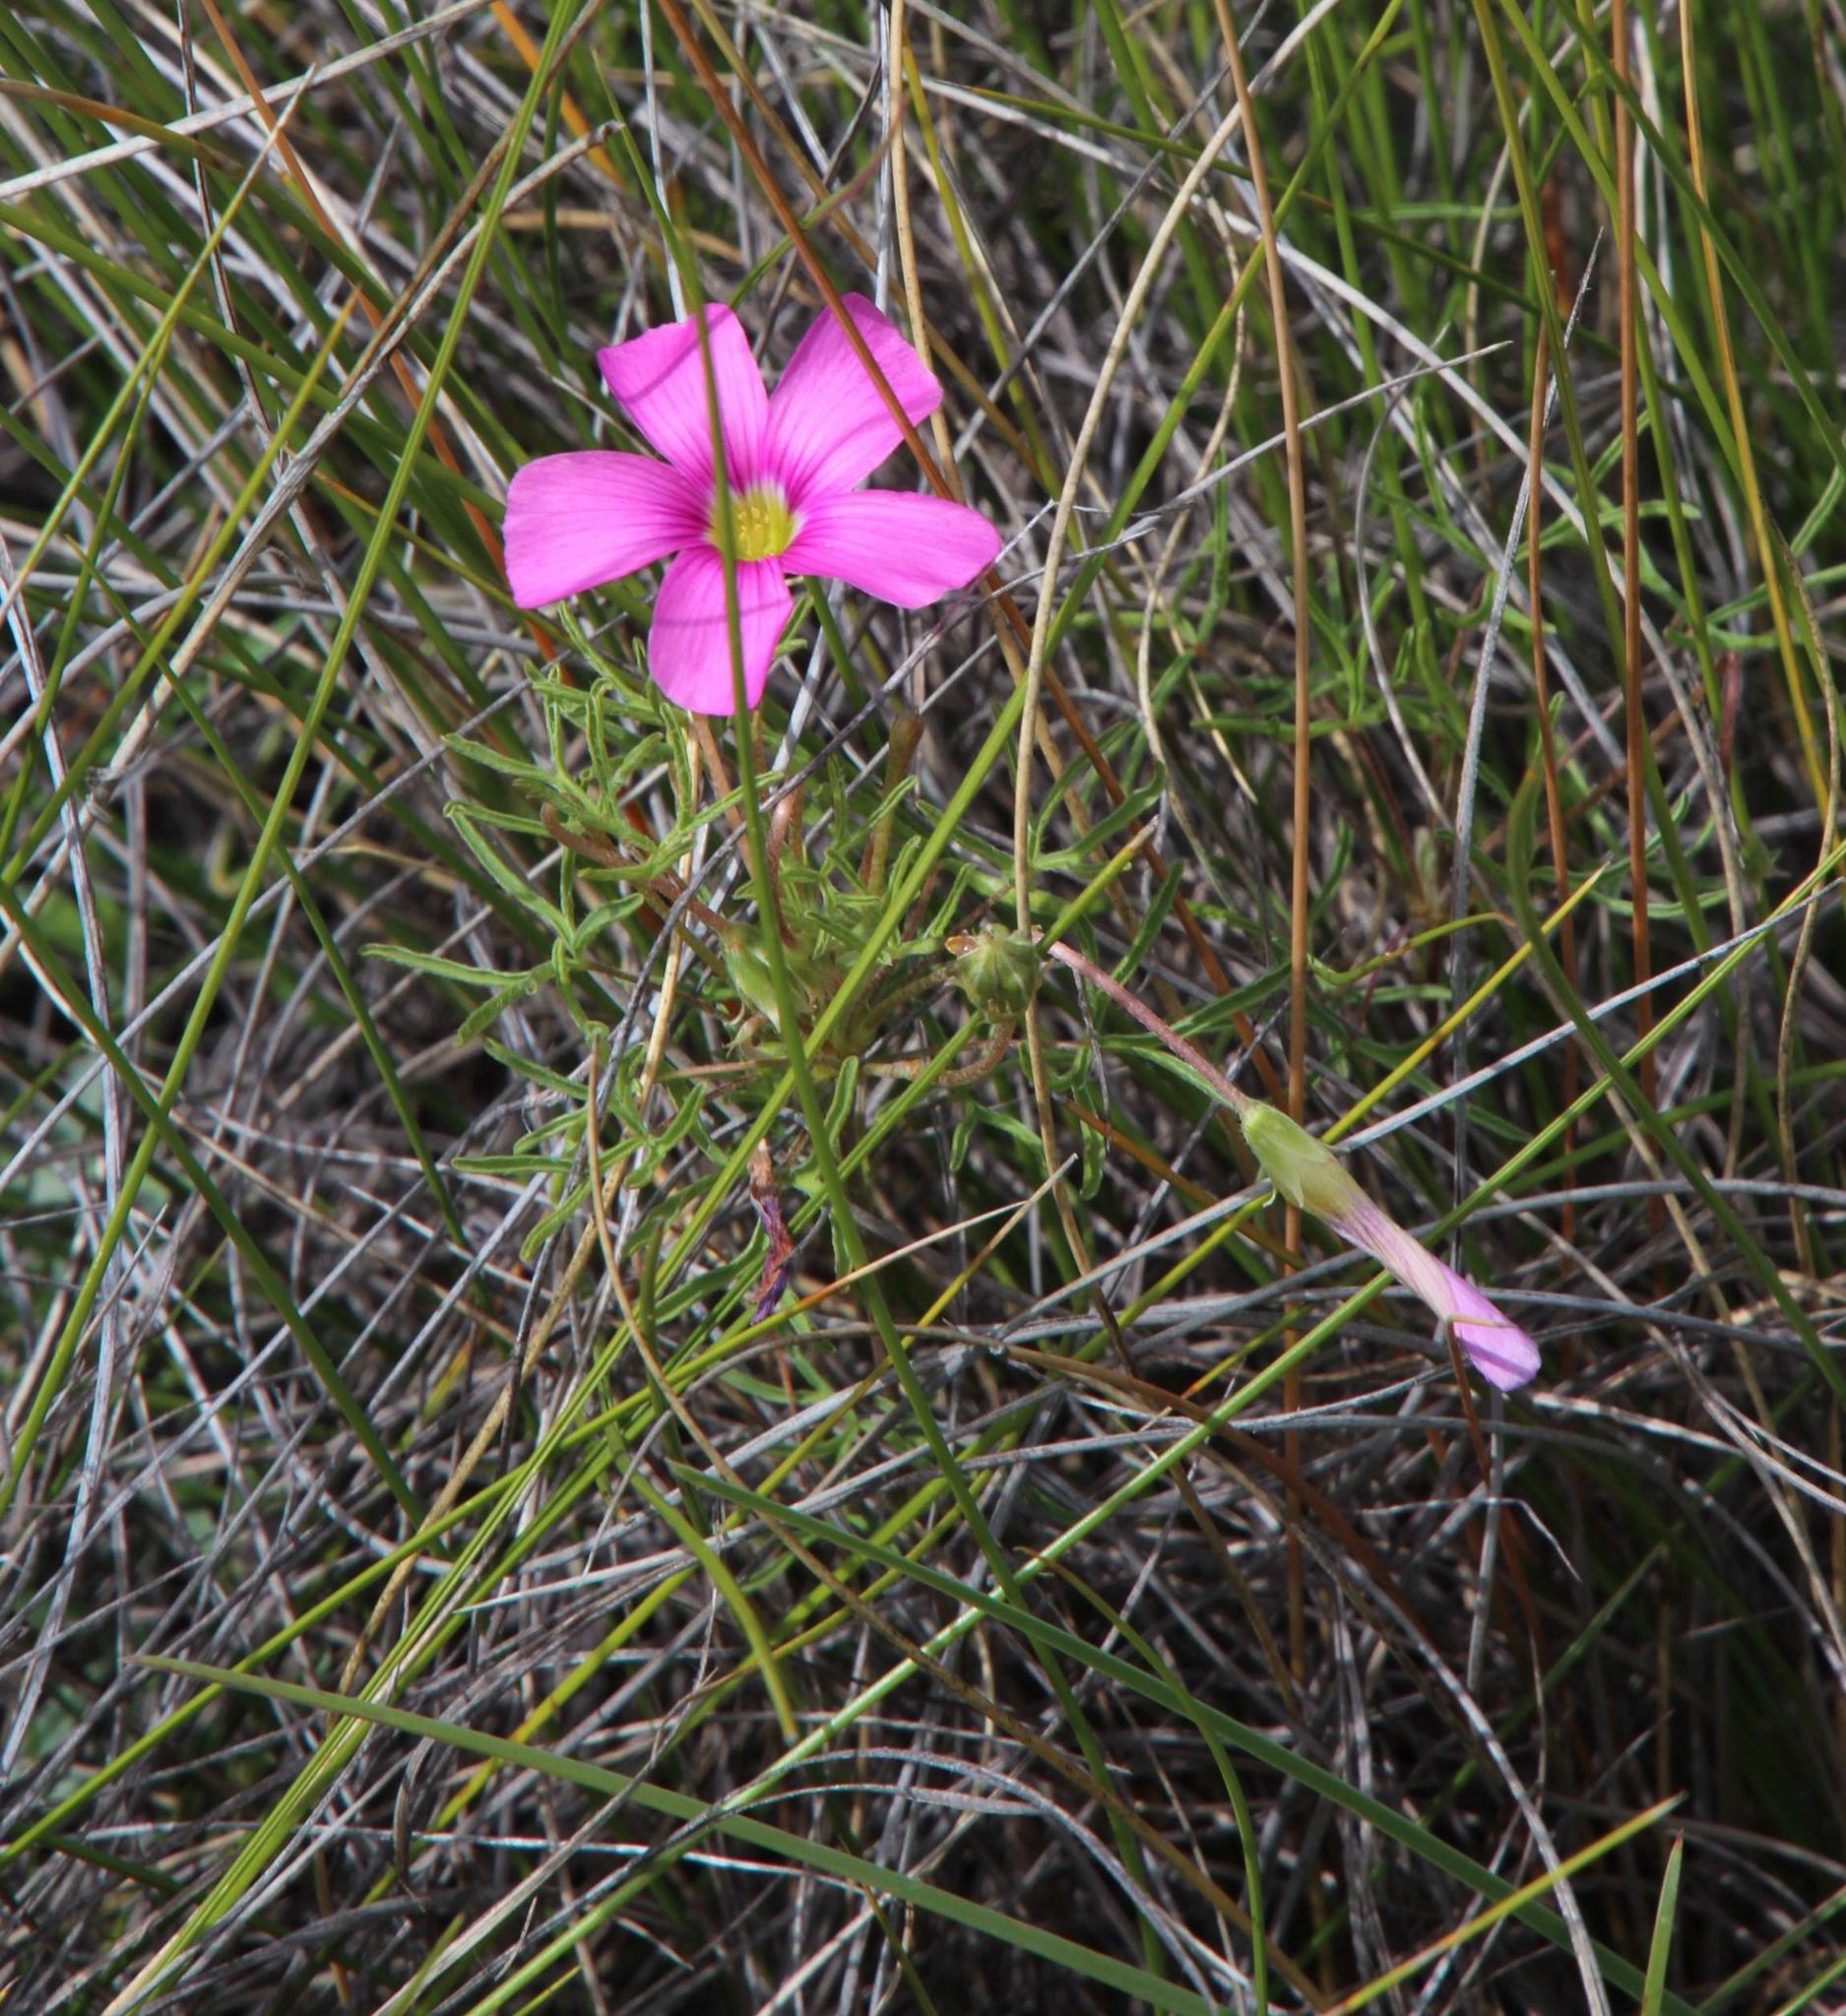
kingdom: Plantae
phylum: Tracheophyta
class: Magnoliopsida
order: Oxalidales
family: Oxalidaceae
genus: Oxalis
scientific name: Oxalis bifurca
